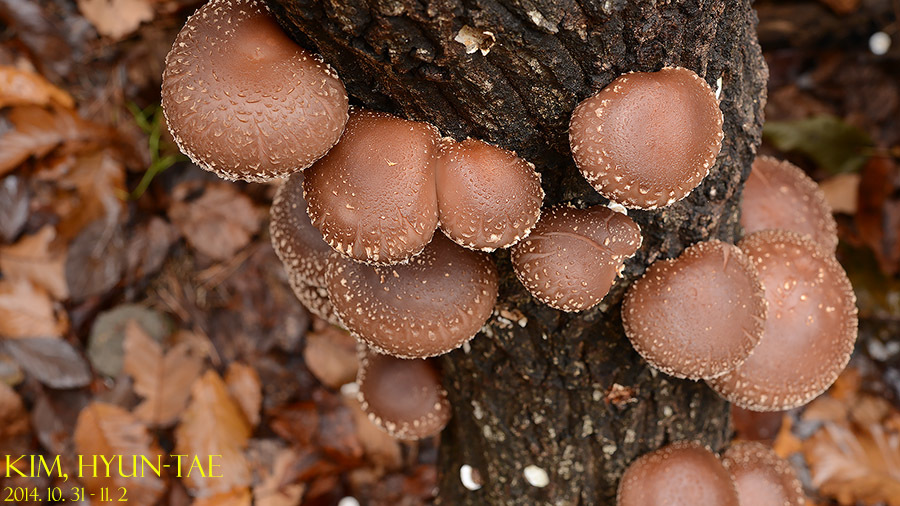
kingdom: Fungi
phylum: Basidiomycota
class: Agaricomycetes
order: Agaricales
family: Omphalotaceae
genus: Lentinula
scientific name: Lentinula edodes
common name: Shiitake
